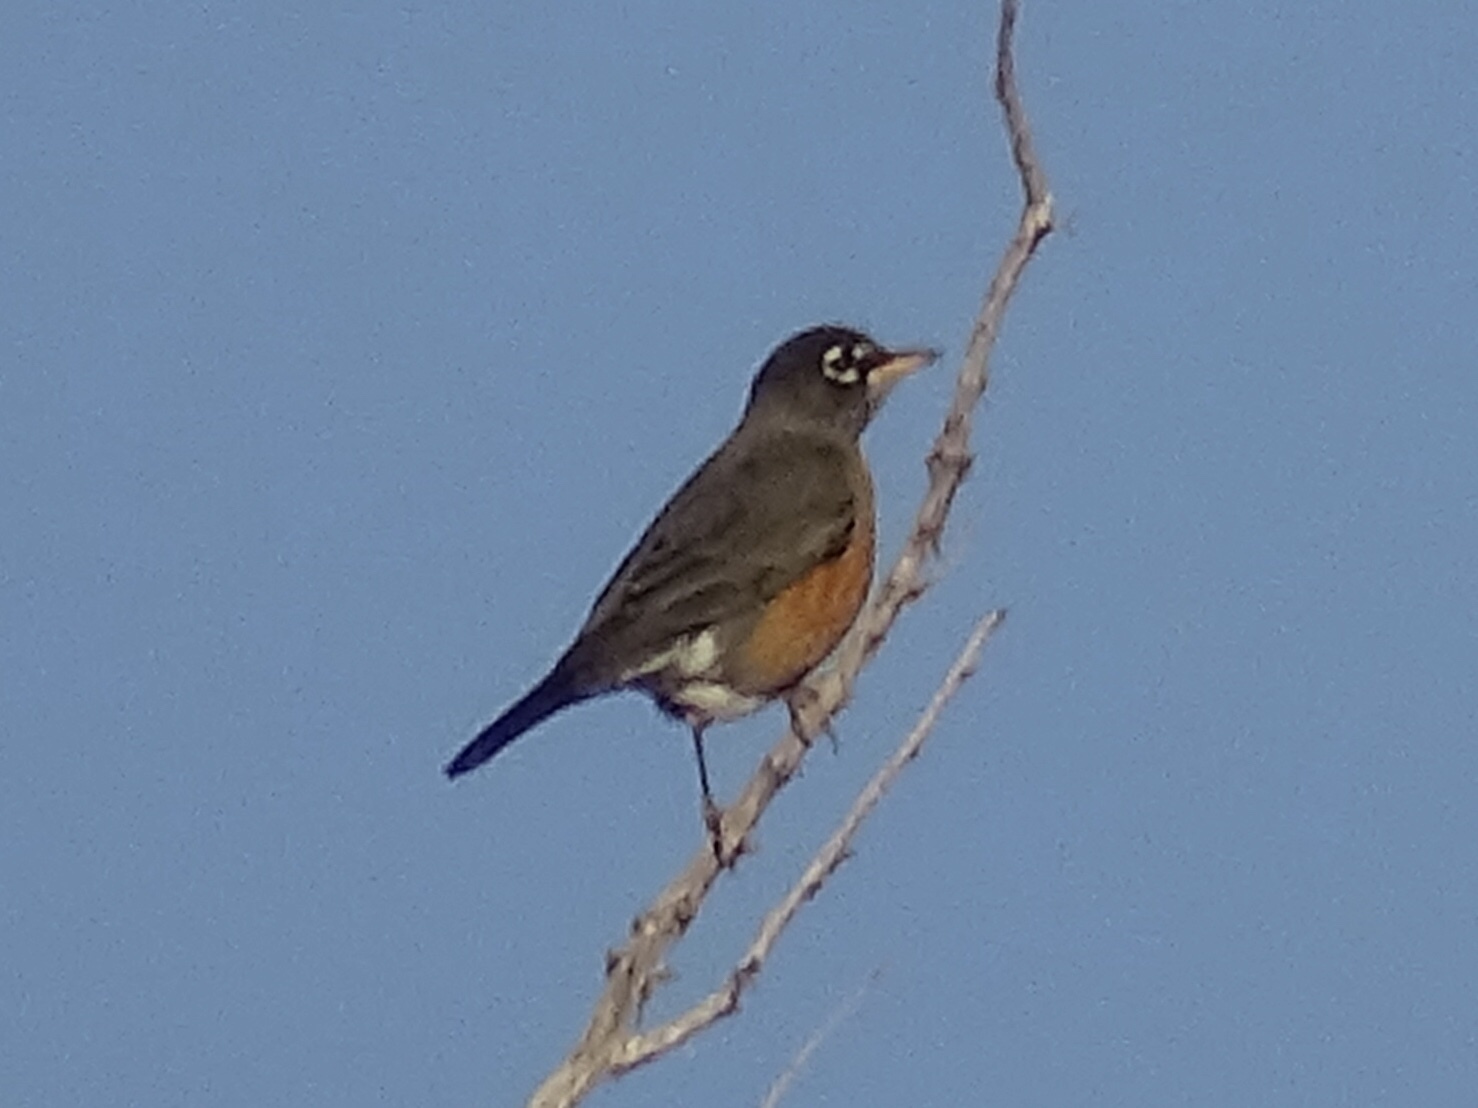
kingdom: Animalia
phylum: Chordata
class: Aves
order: Passeriformes
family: Turdidae
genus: Turdus
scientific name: Turdus migratorius
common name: American robin
